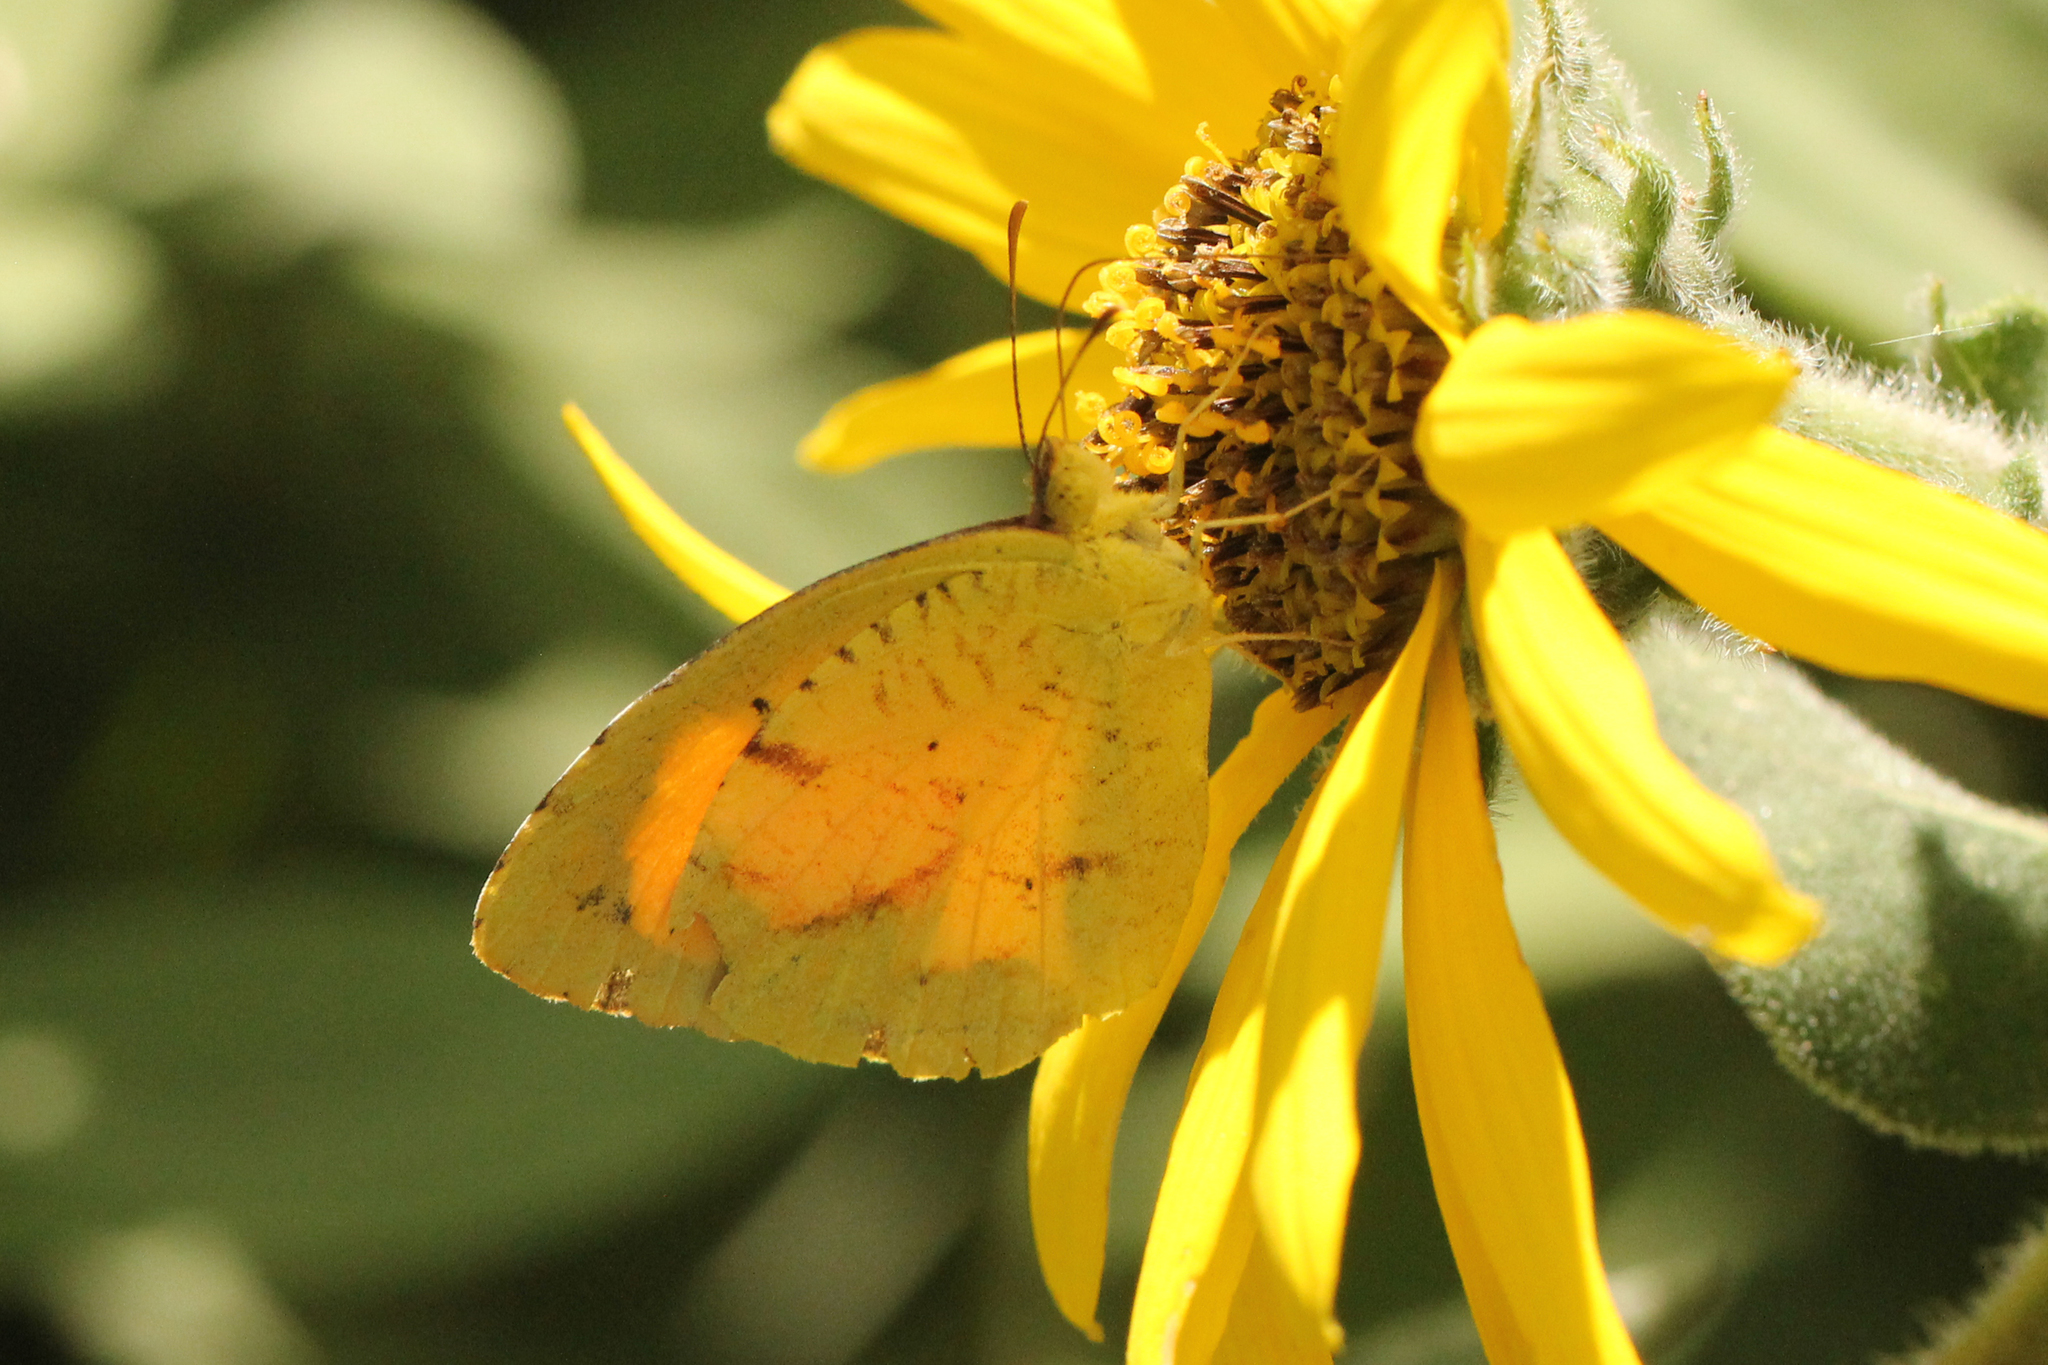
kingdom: Animalia
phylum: Arthropoda
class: Insecta
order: Lepidoptera
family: Pieridae
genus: Abaeis
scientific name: Abaeis nicippe
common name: Sleepy orange
